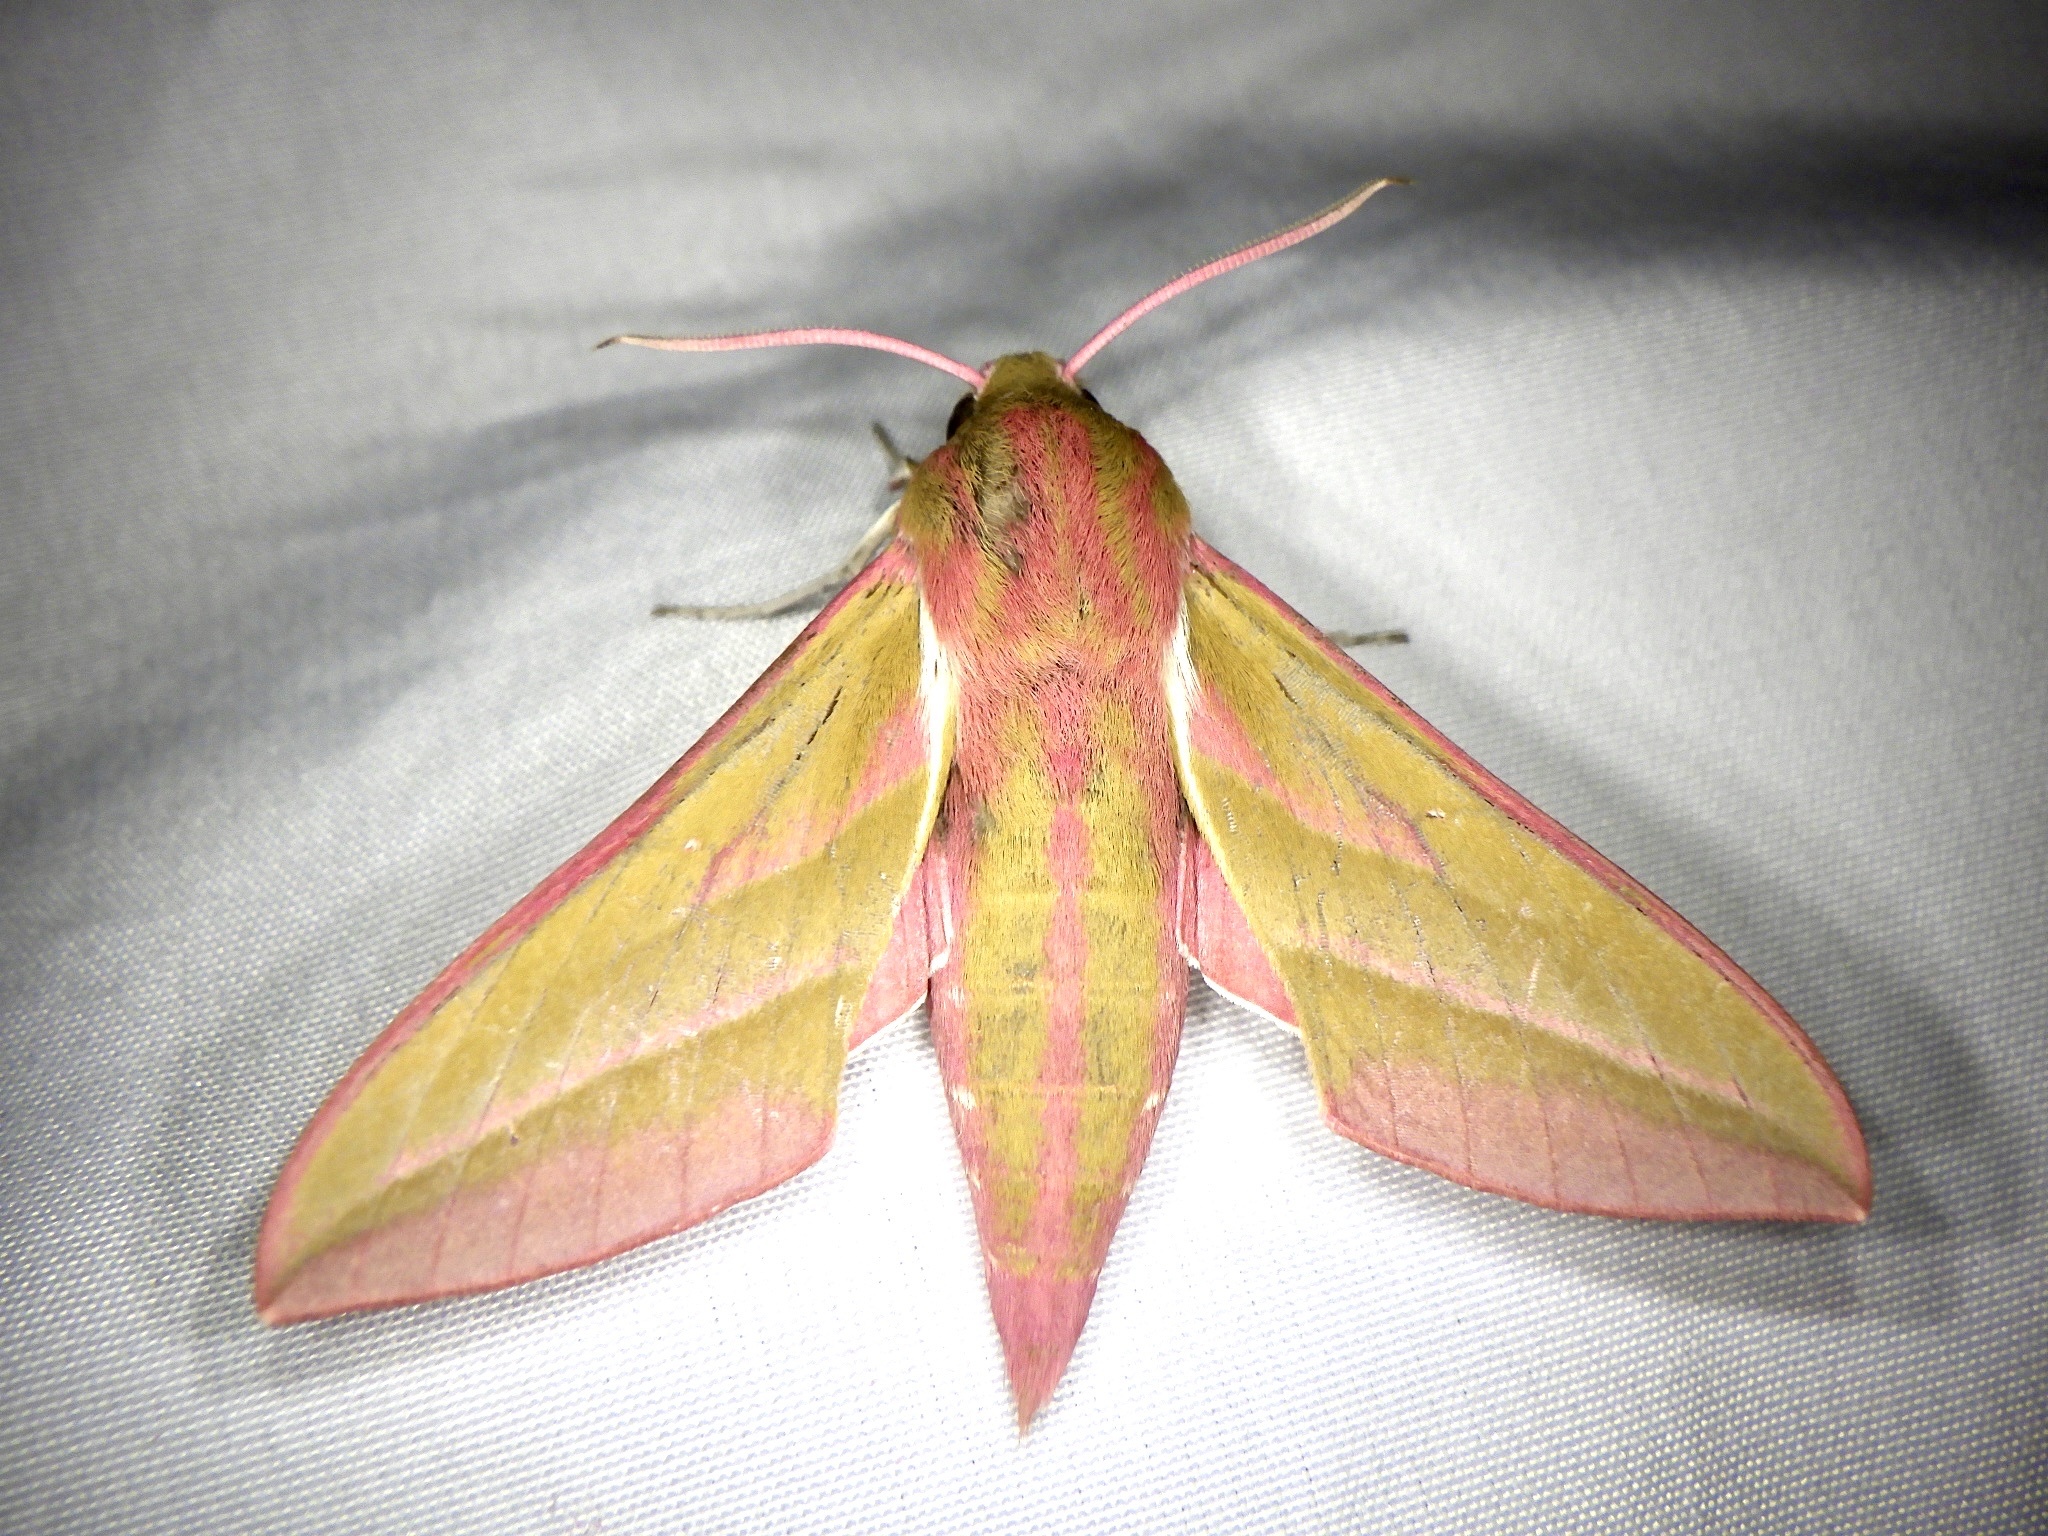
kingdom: Animalia
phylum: Arthropoda
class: Insecta
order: Lepidoptera
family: Sphingidae
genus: Deilephila
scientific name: Deilephila elpenor
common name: Elephant hawk-moth
